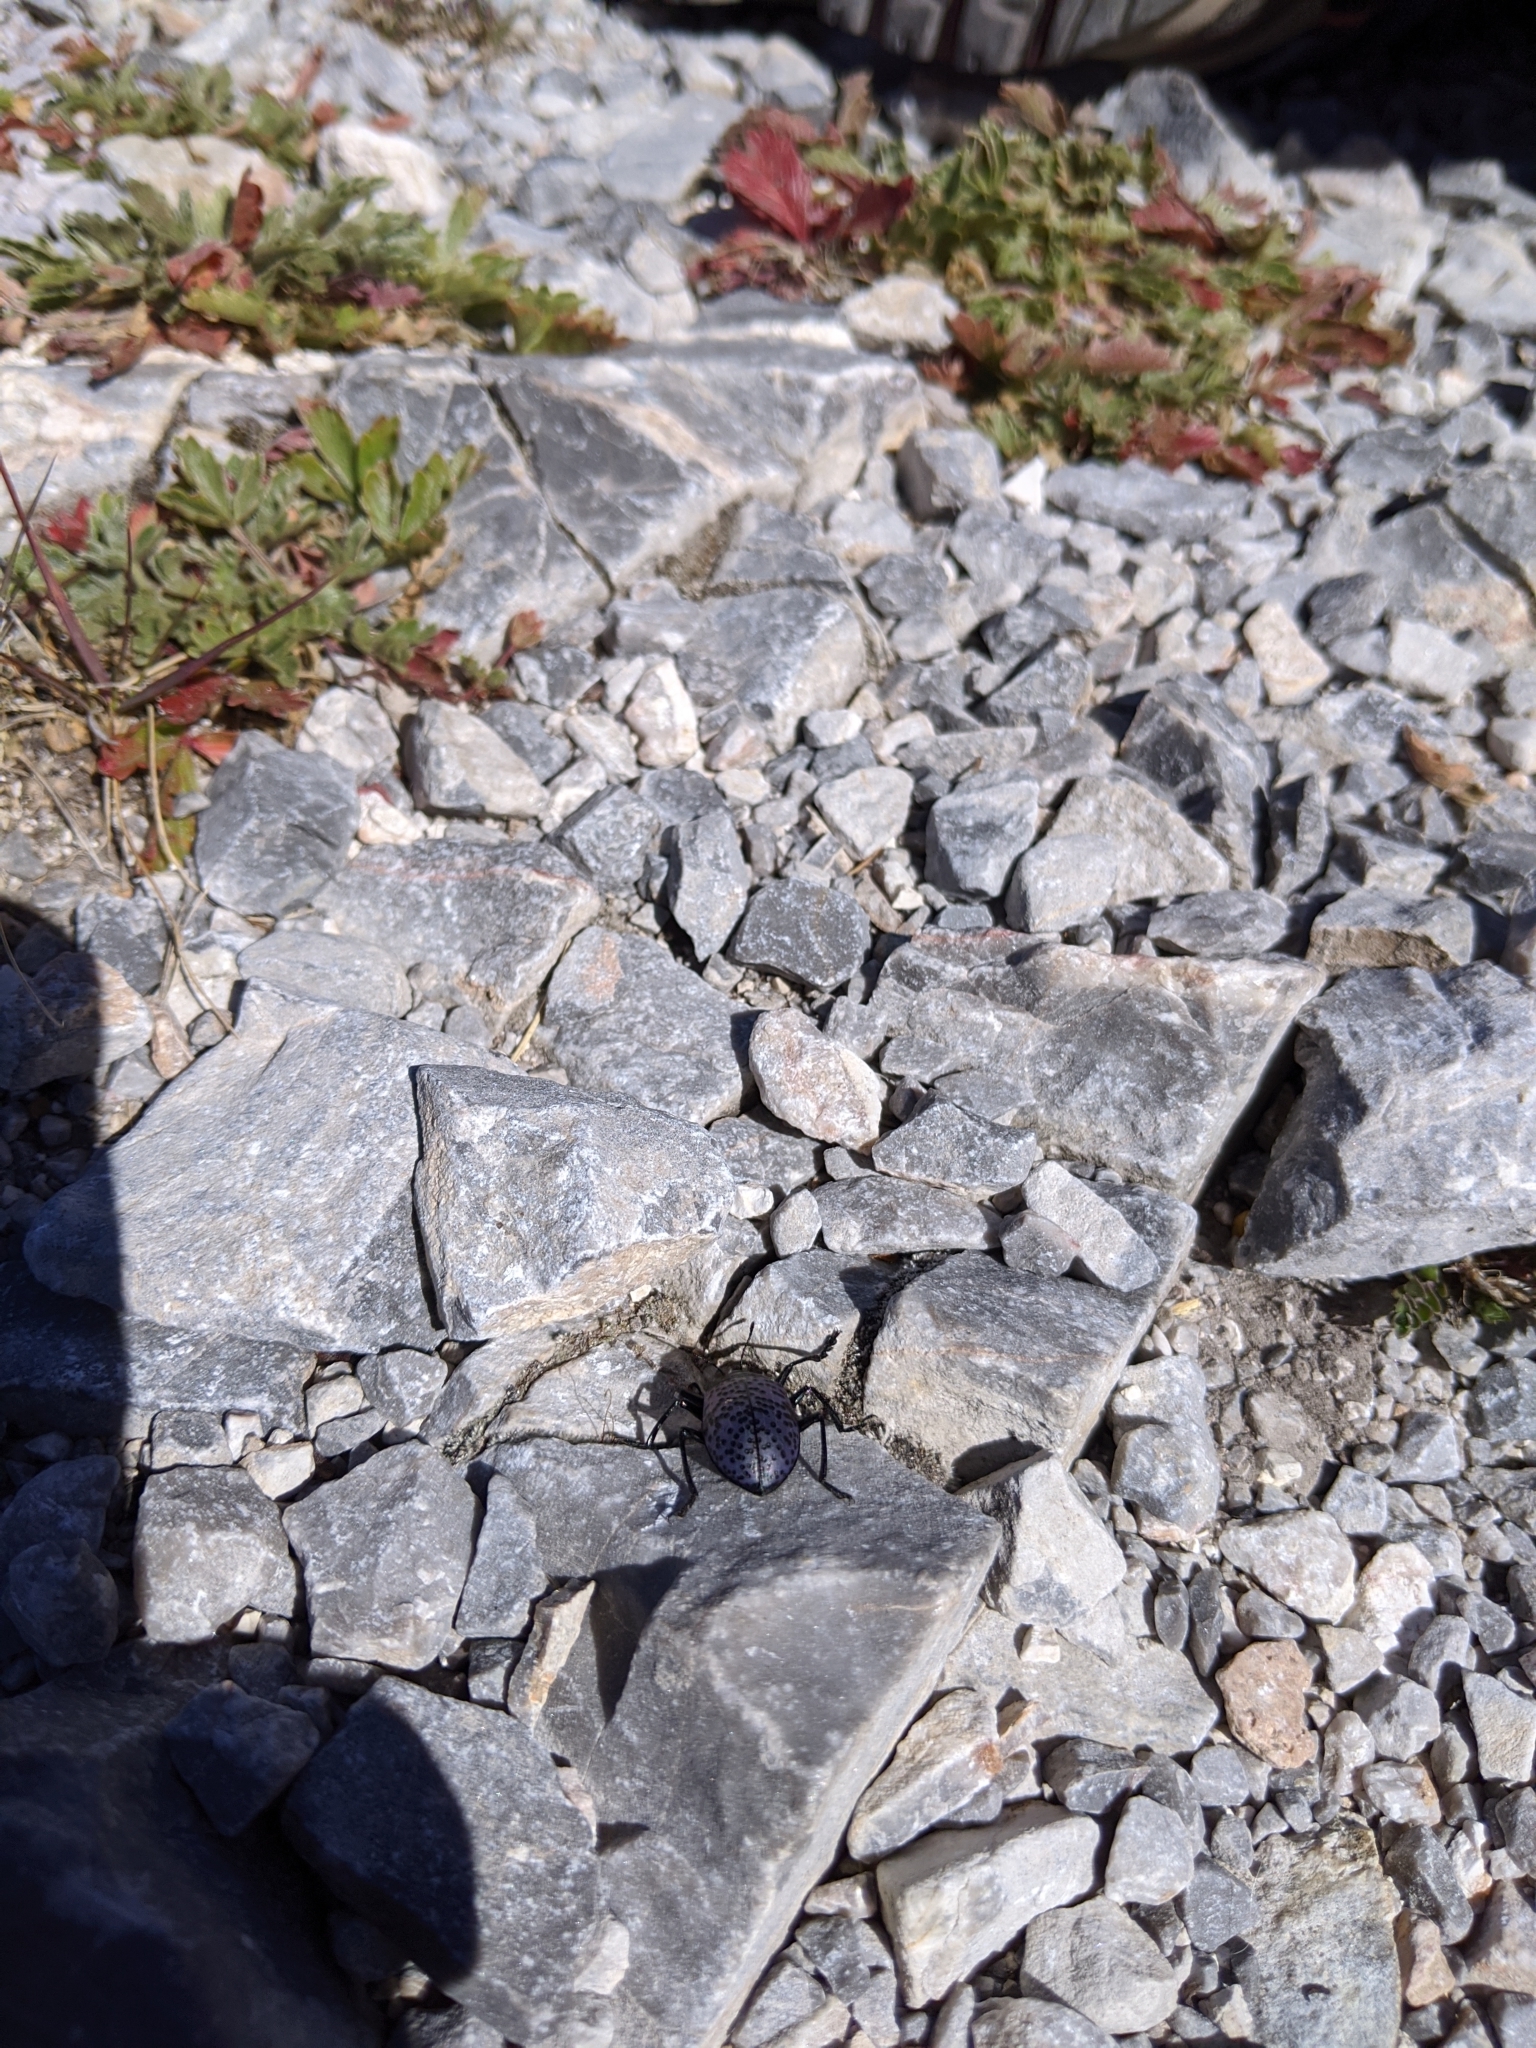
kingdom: Animalia
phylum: Arthropoda
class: Insecta
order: Coleoptera
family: Erotylidae
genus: Gibbifer
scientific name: Gibbifer californicus
